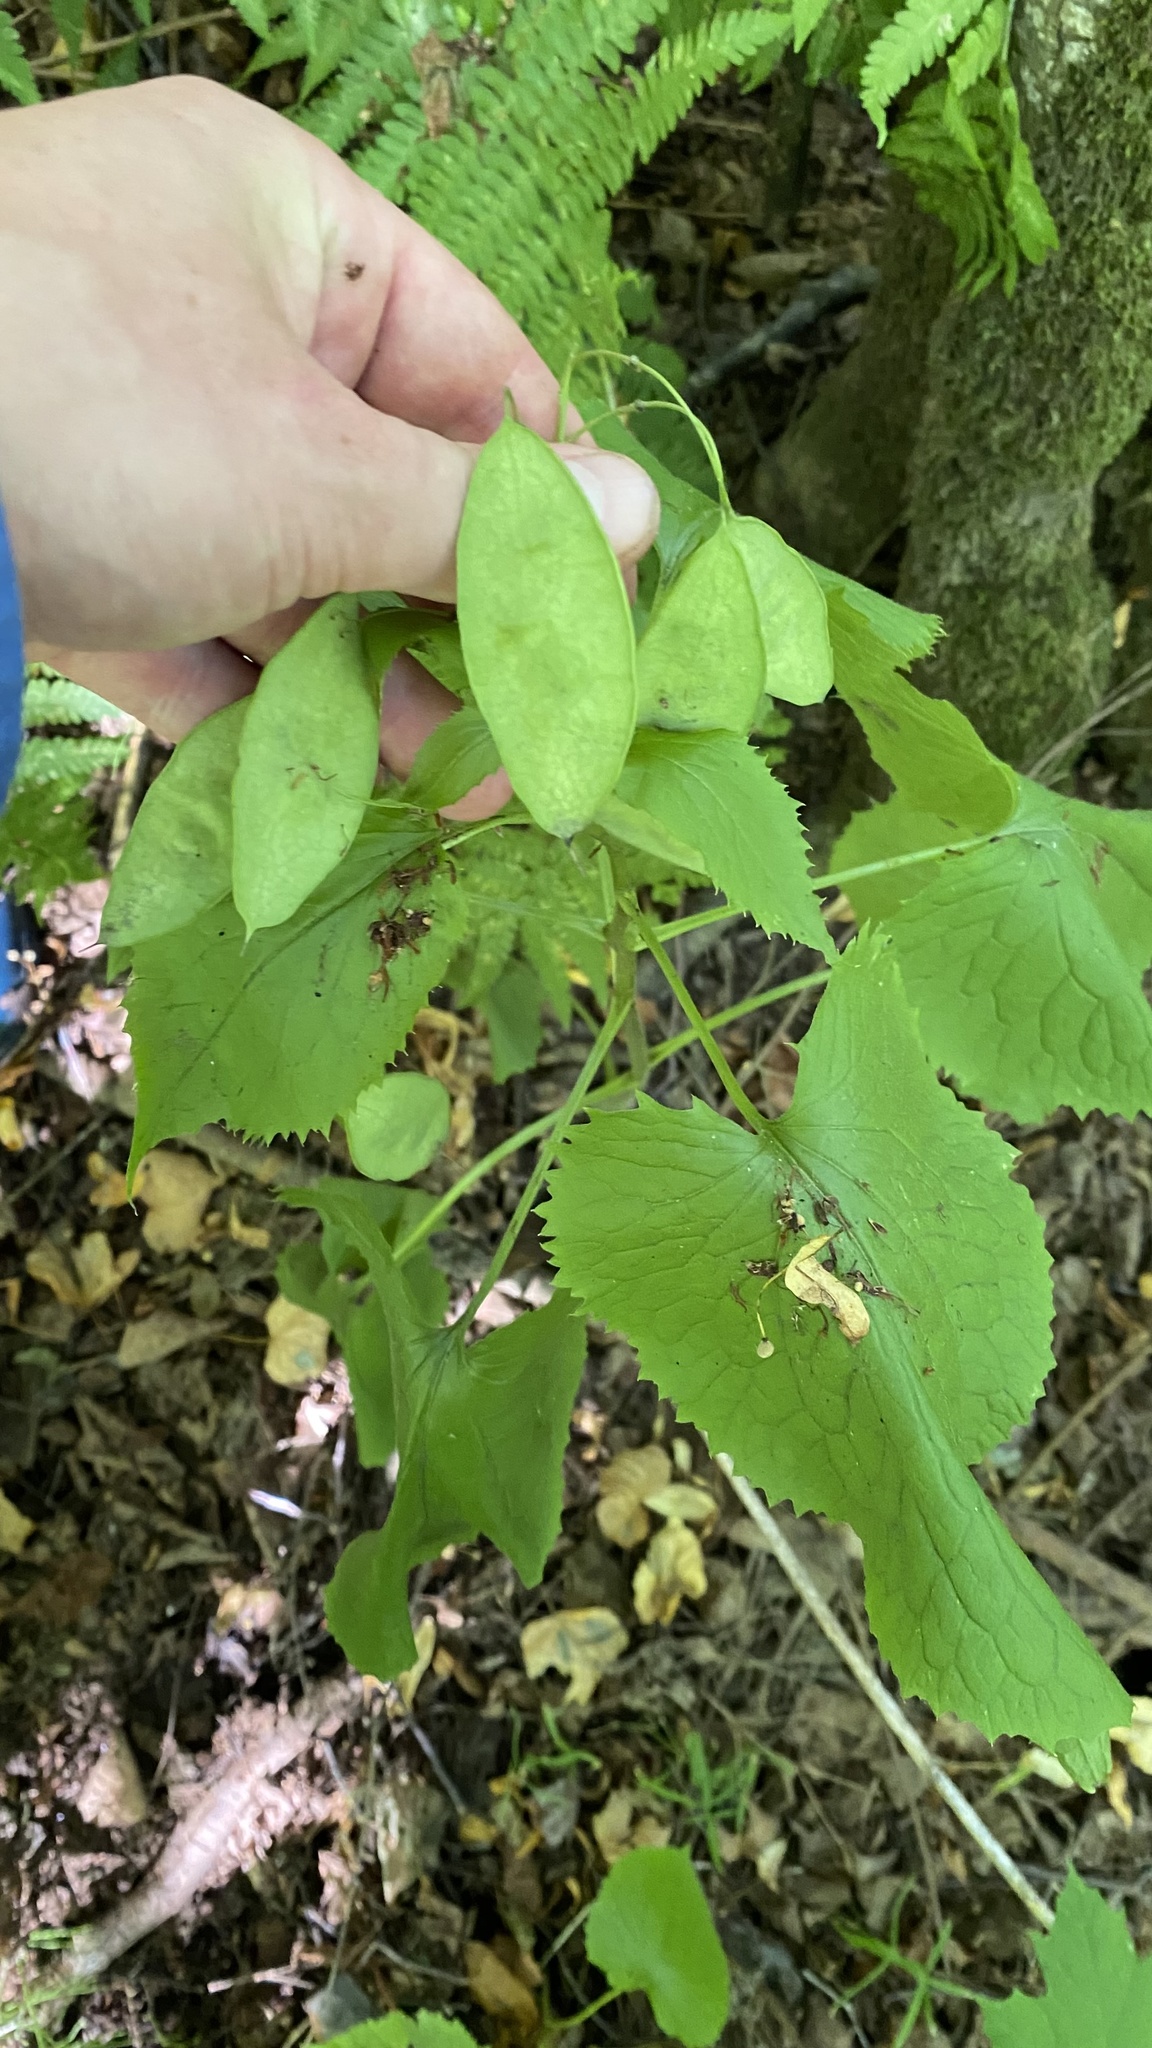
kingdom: Plantae
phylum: Tracheophyta
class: Magnoliopsida
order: Brassicales
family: Brassicaceae
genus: Lunaria
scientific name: Lunaria rediviva
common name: Perennial honesty
